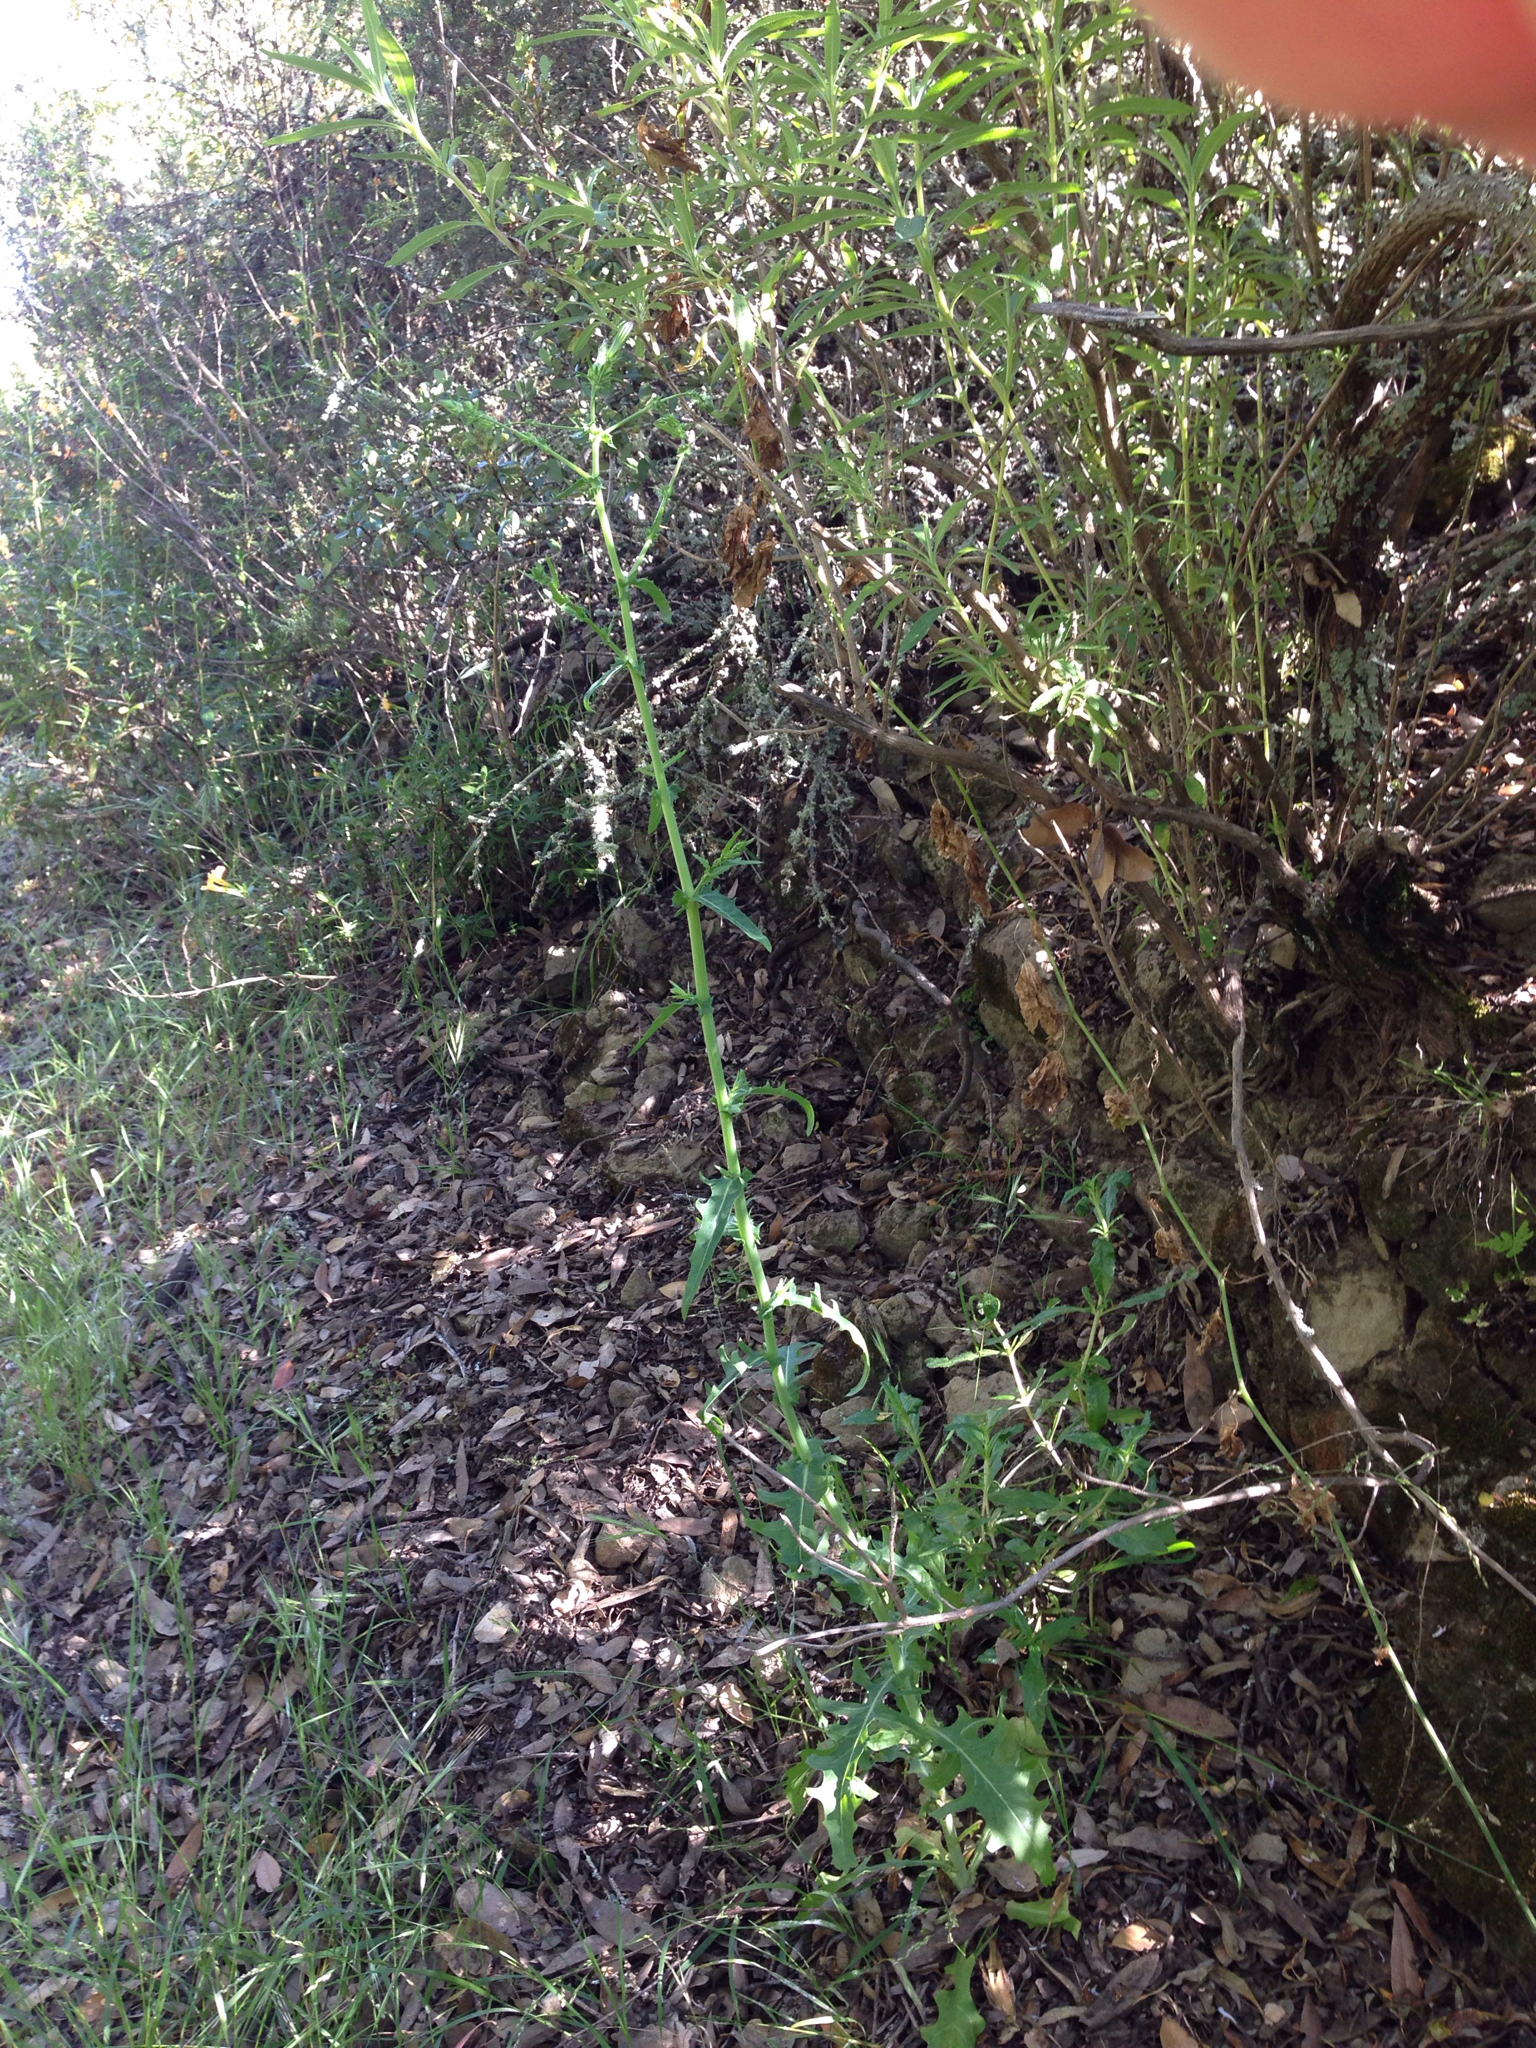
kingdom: Plantae
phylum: Tracheophyta
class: Magnoliopsida
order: Asterales
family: Asteraceae
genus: Rafinesquia
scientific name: Rafinesquia californica
